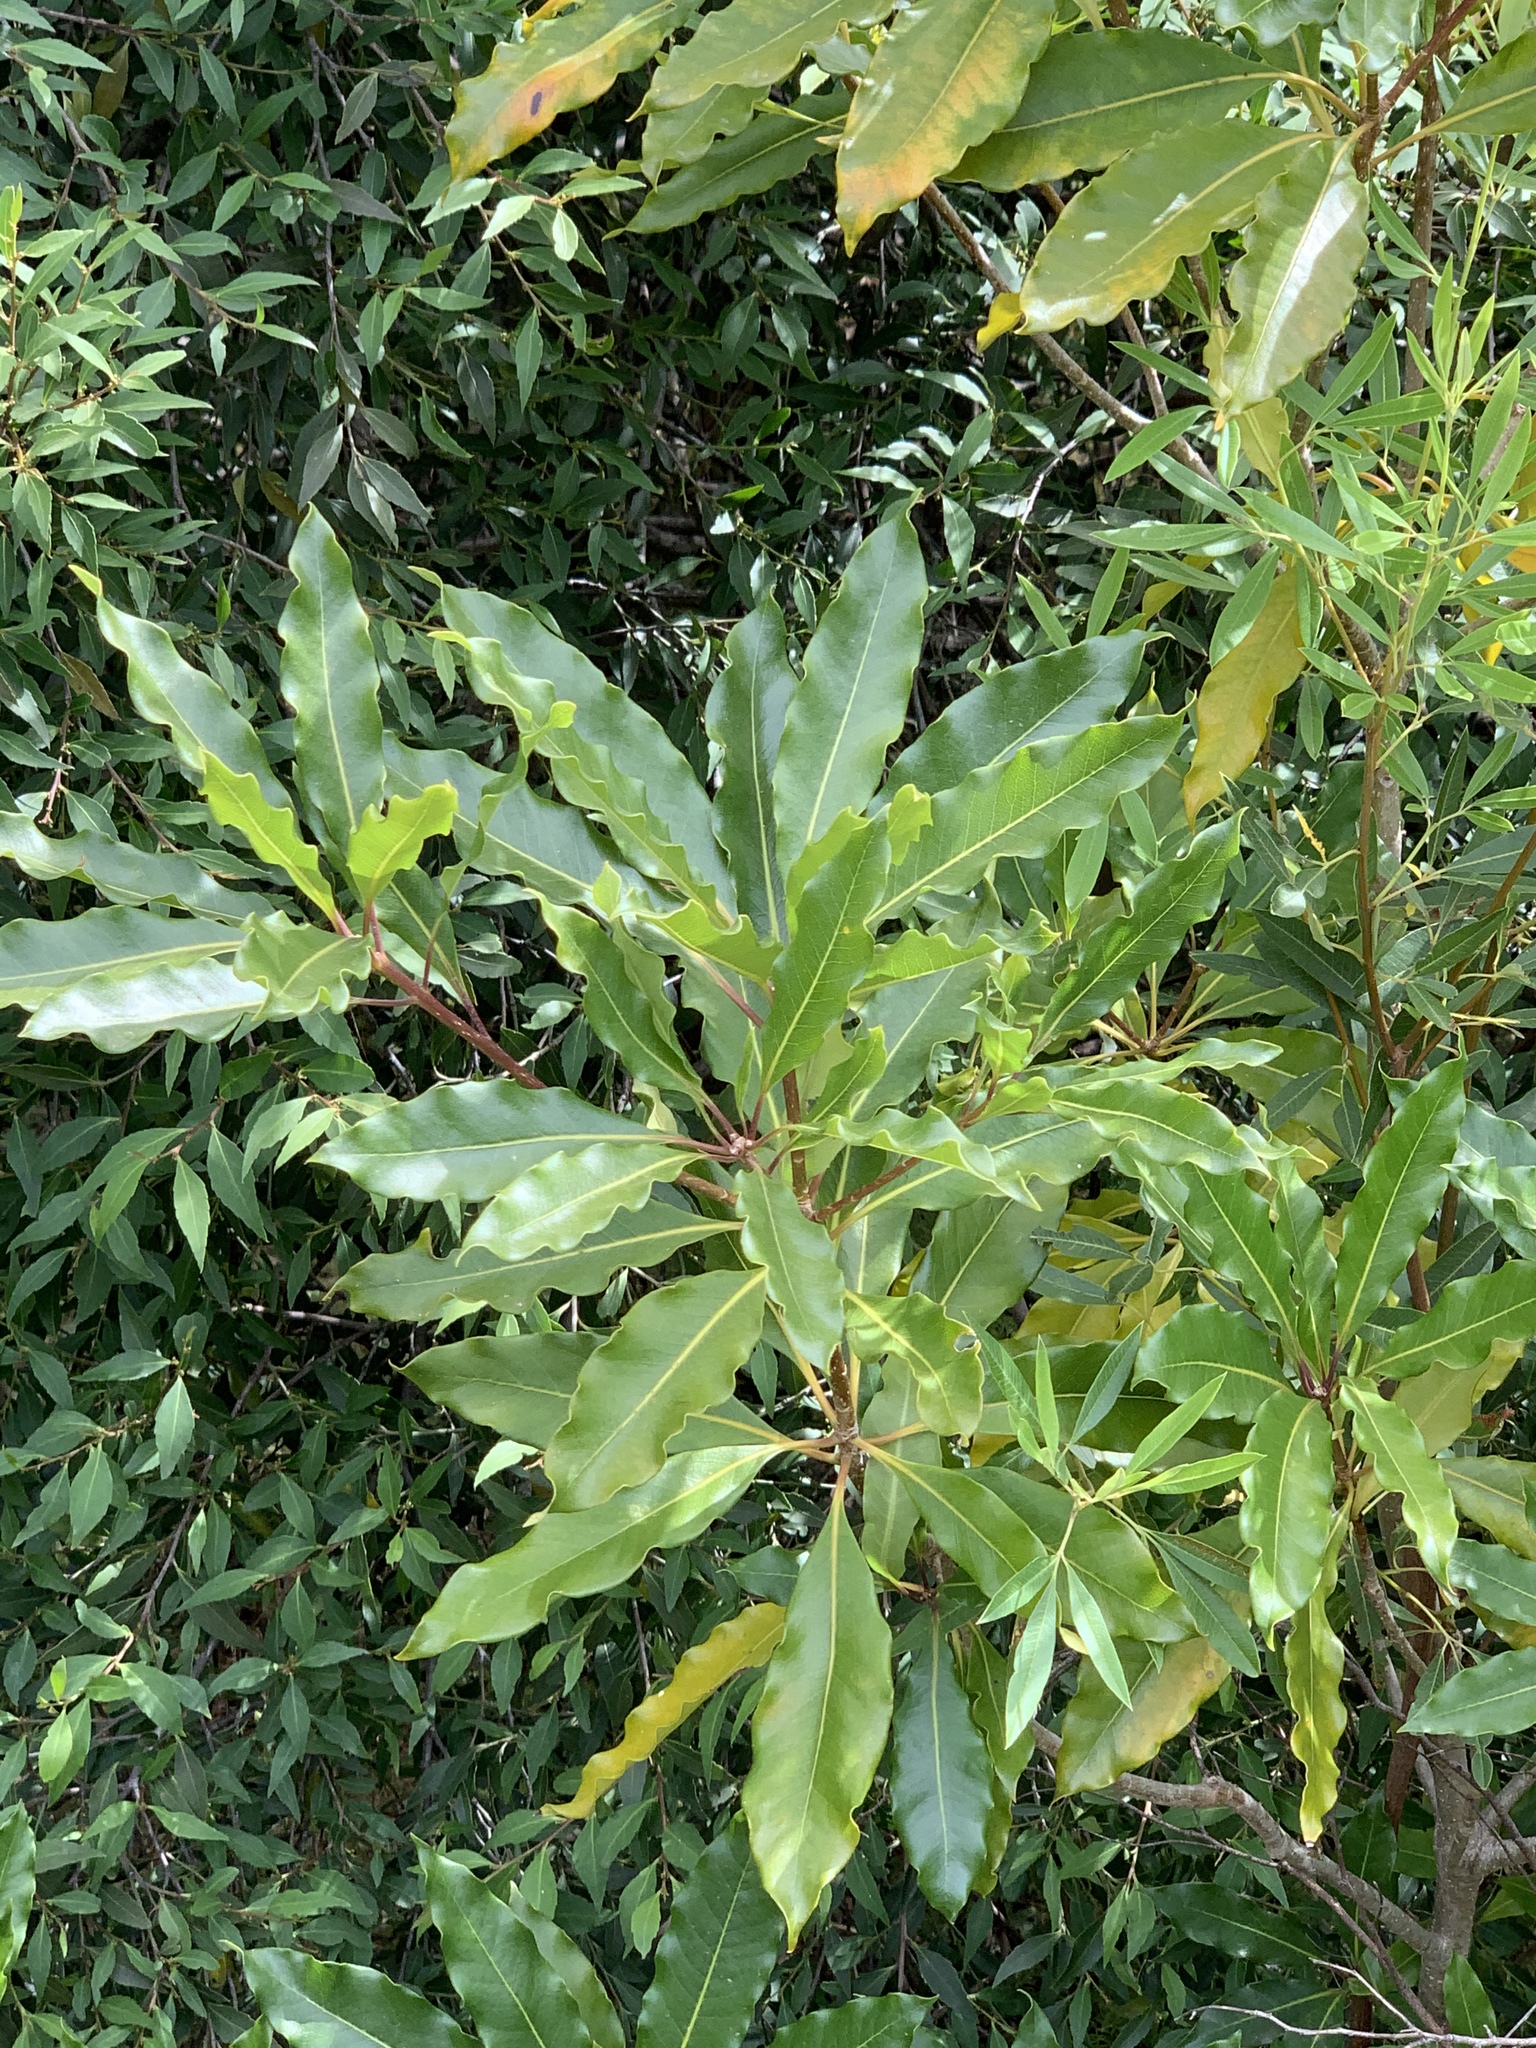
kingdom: Plantae
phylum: Tracheophyta
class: Magnoliopsida
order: Apiales
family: Pittosporaceae
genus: Pittosporum
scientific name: Pittosporum undulatum
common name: Australian cheesewood
